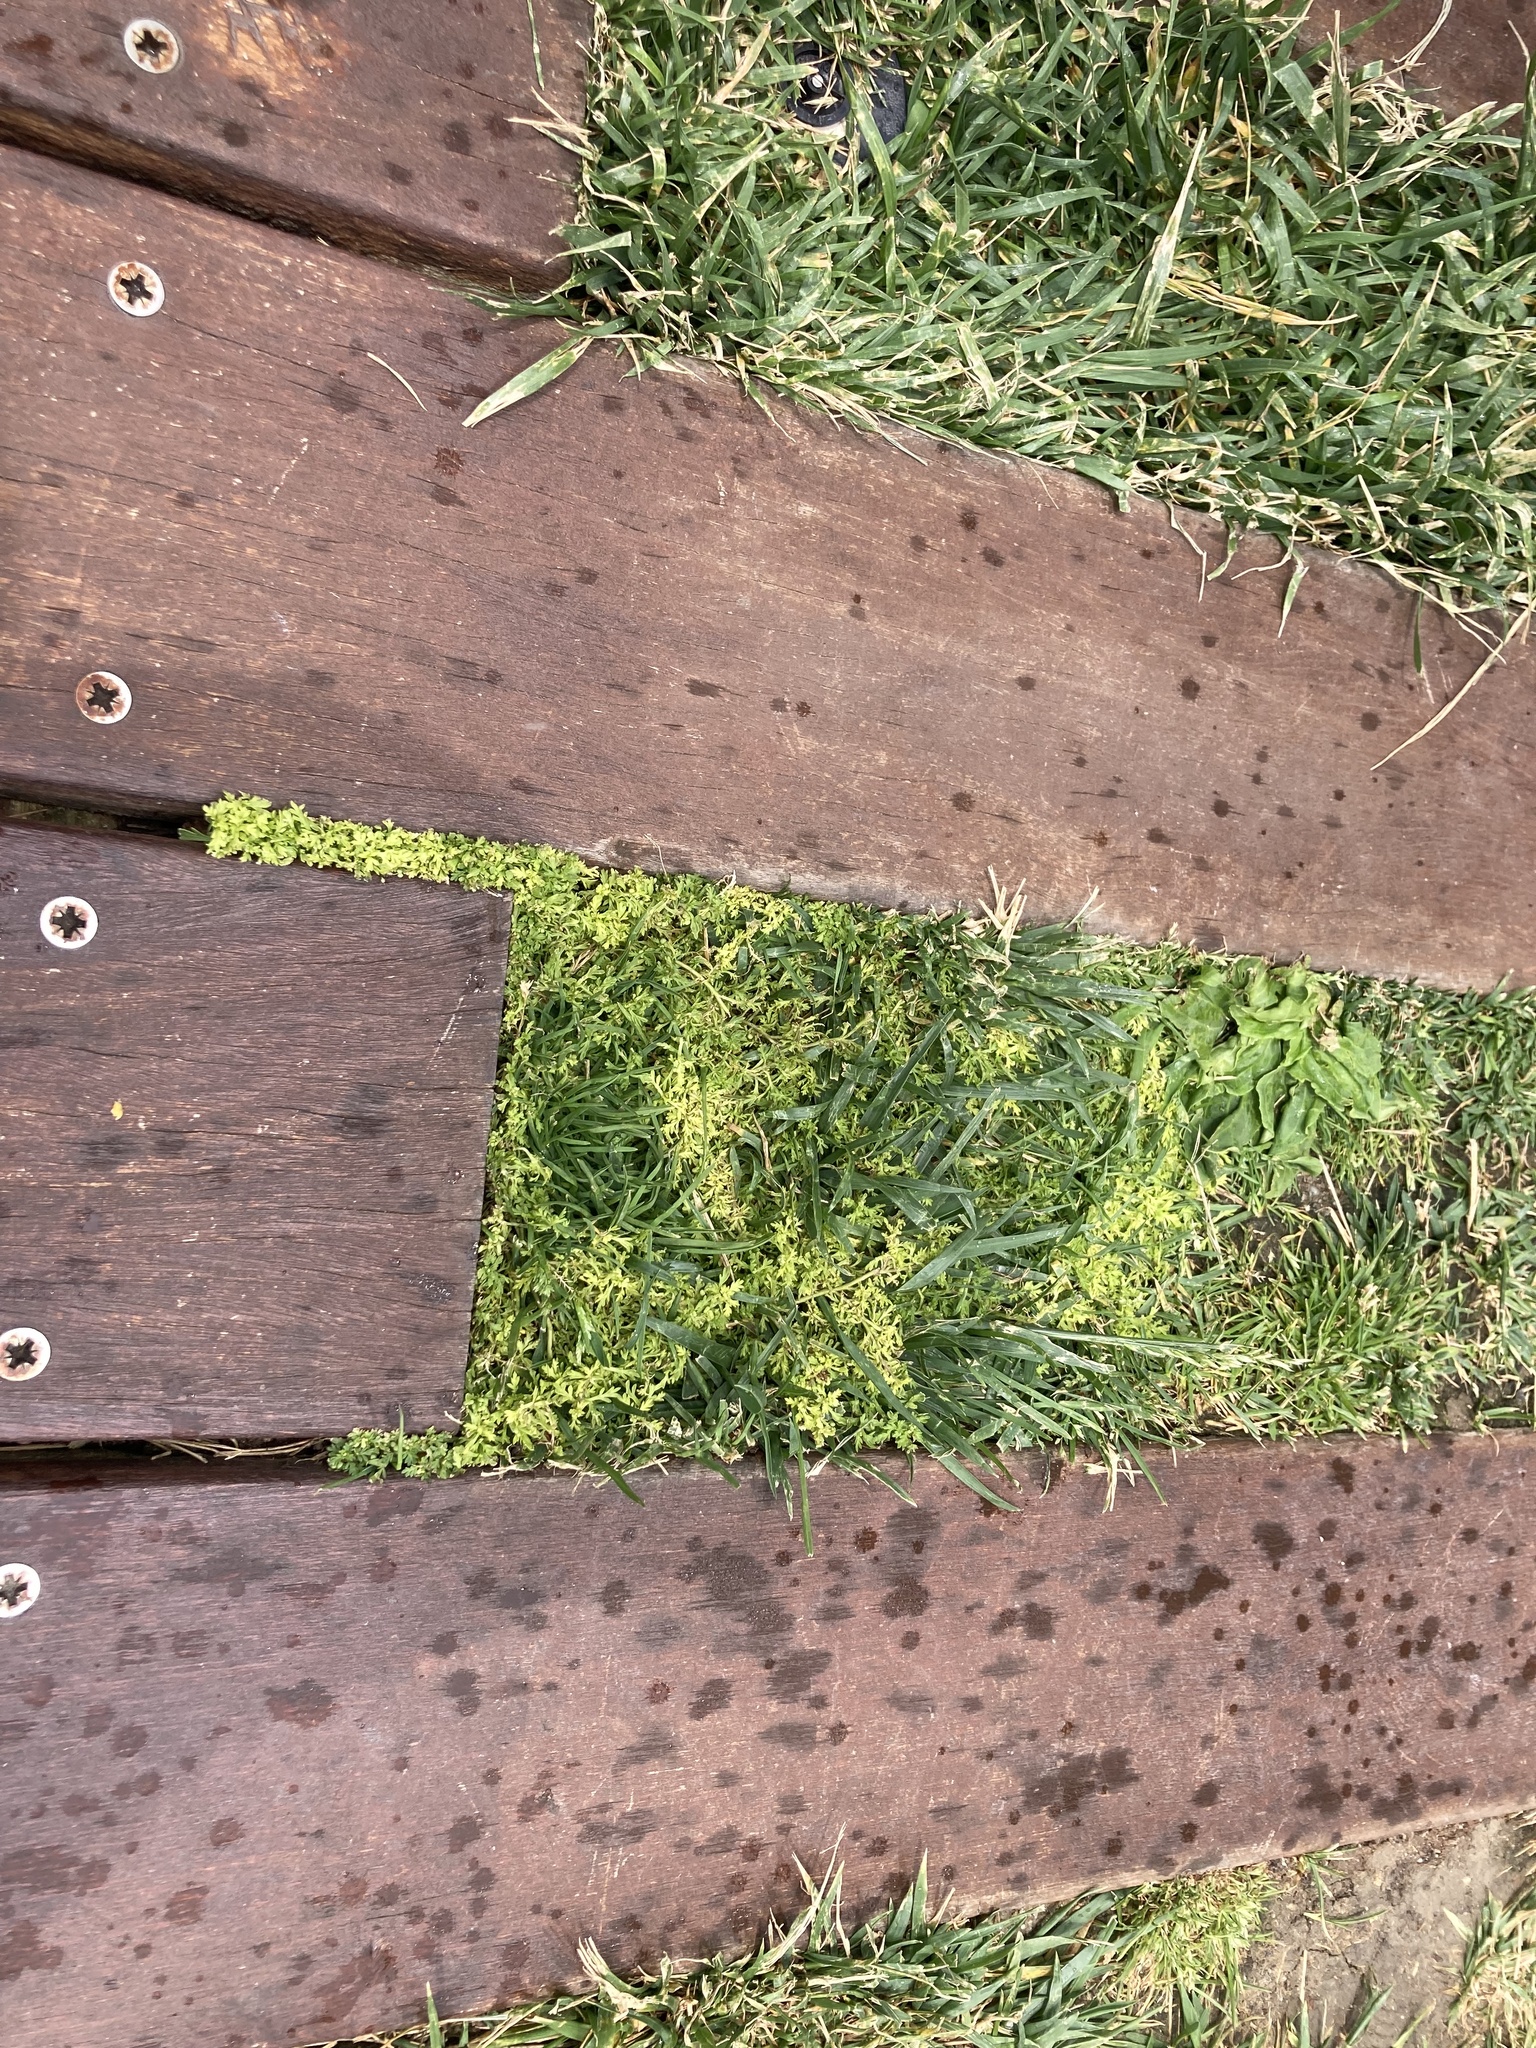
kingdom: Plantae
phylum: Tracheophyta
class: Magnoliopsida
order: Brassicales
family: Brassicaceae
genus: Lepidium
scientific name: Lepidium didymum
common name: Lesser swinecress
